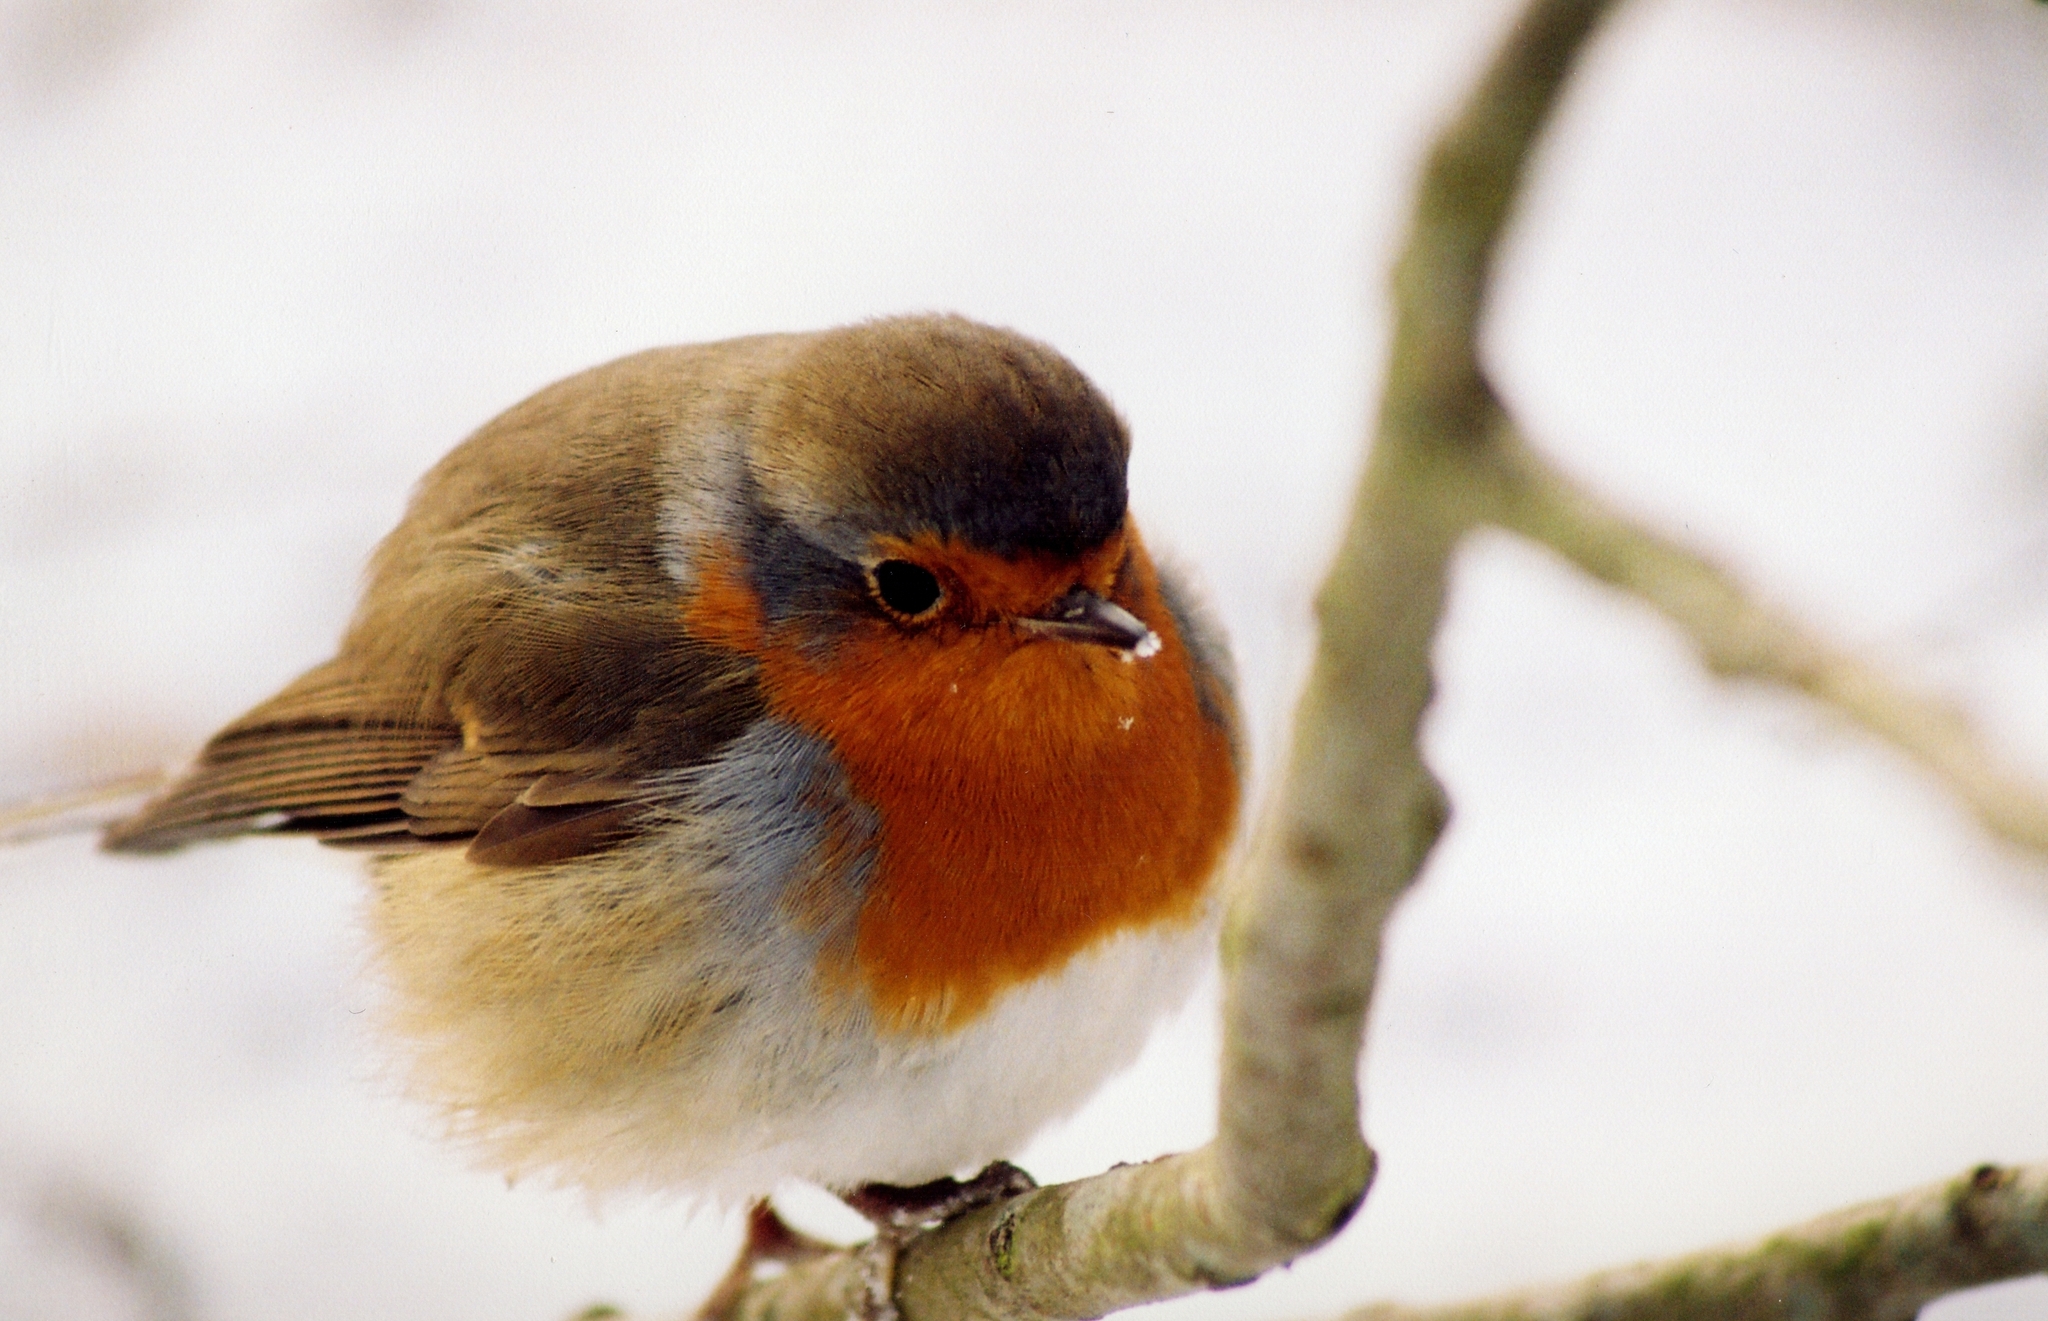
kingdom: Animalia
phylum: Chordata
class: Aves
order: Passeriformes
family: Muscicapidae
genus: Erithacus
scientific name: Erithacus rubecula
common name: European robin
